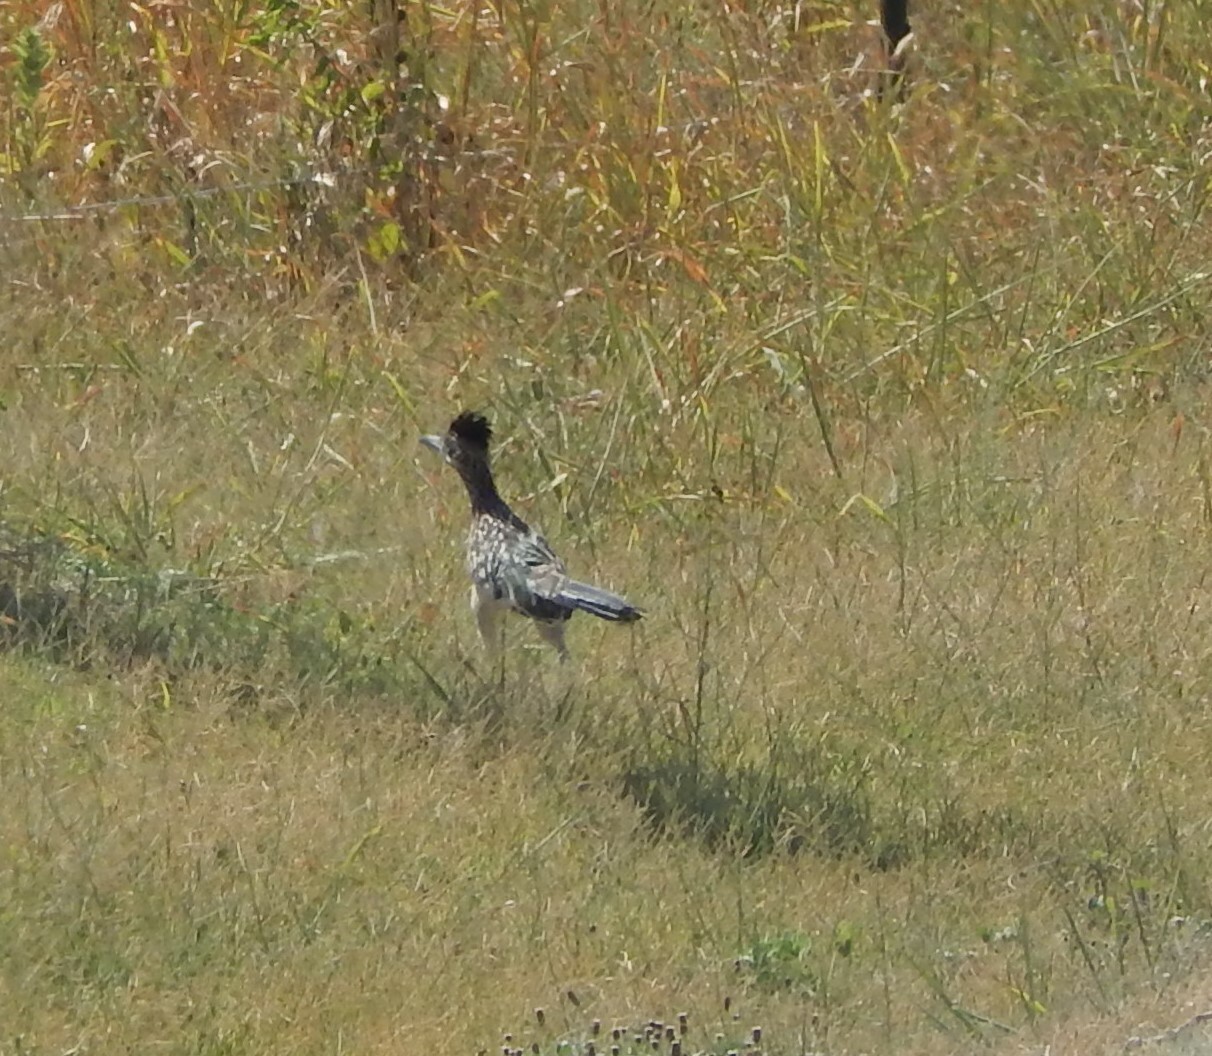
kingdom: Animalia
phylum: Chordata
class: Aves
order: Cuculiformes
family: Cuculidae
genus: Geococcyx
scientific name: Geococcyx californianus
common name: Greater roadrunner
